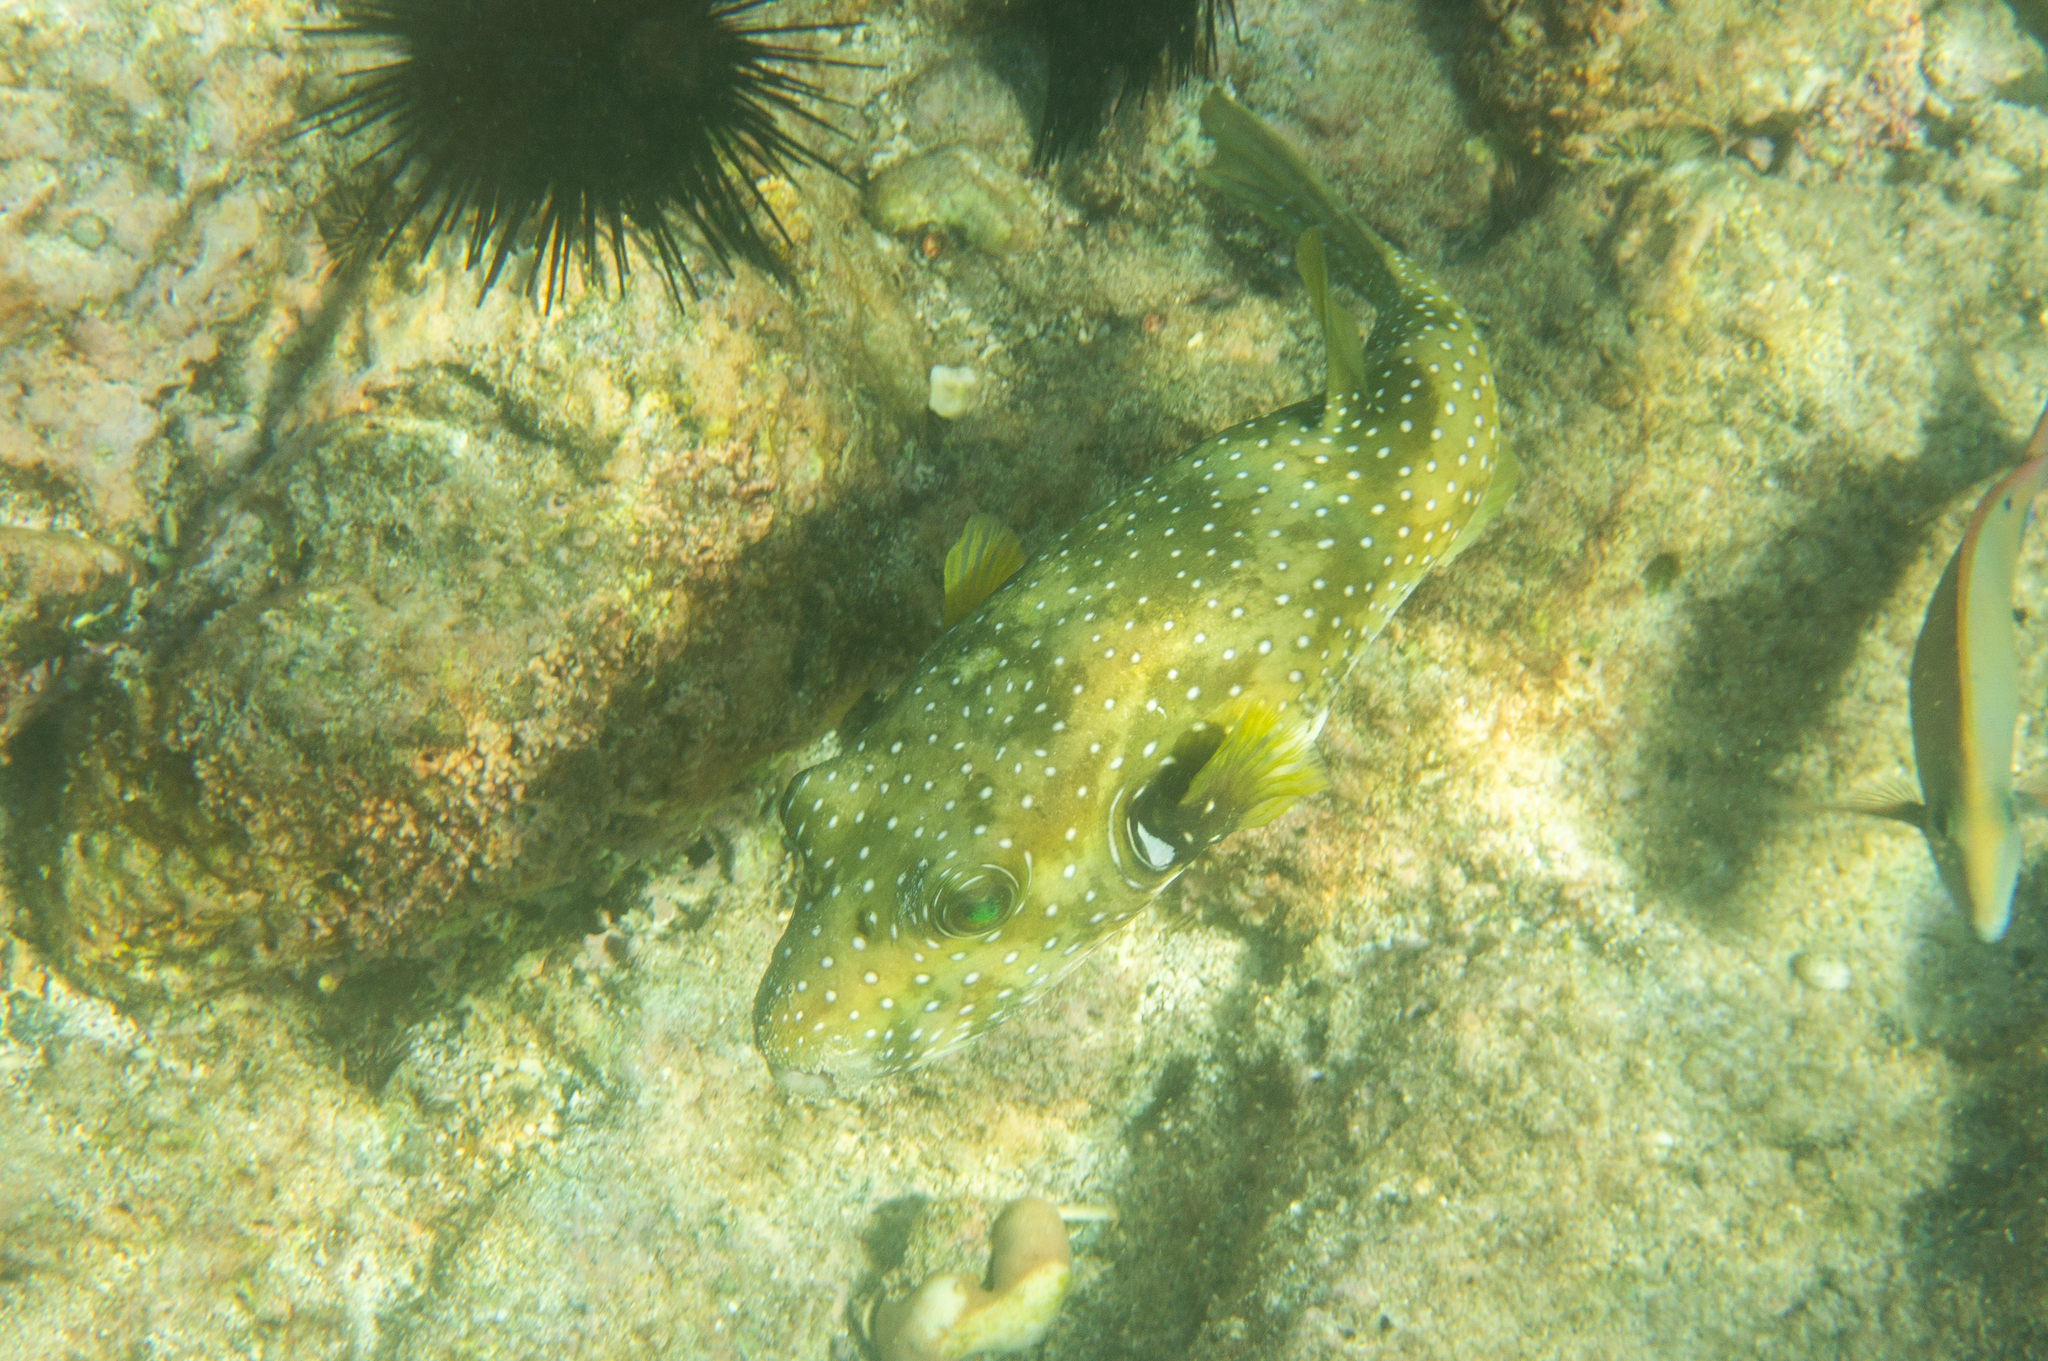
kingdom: Animalia
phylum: Chordata
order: Tetraodontiformes
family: Tetraodontidae
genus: Arothron
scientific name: Arothron hispidus
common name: Stripebelly puffer
